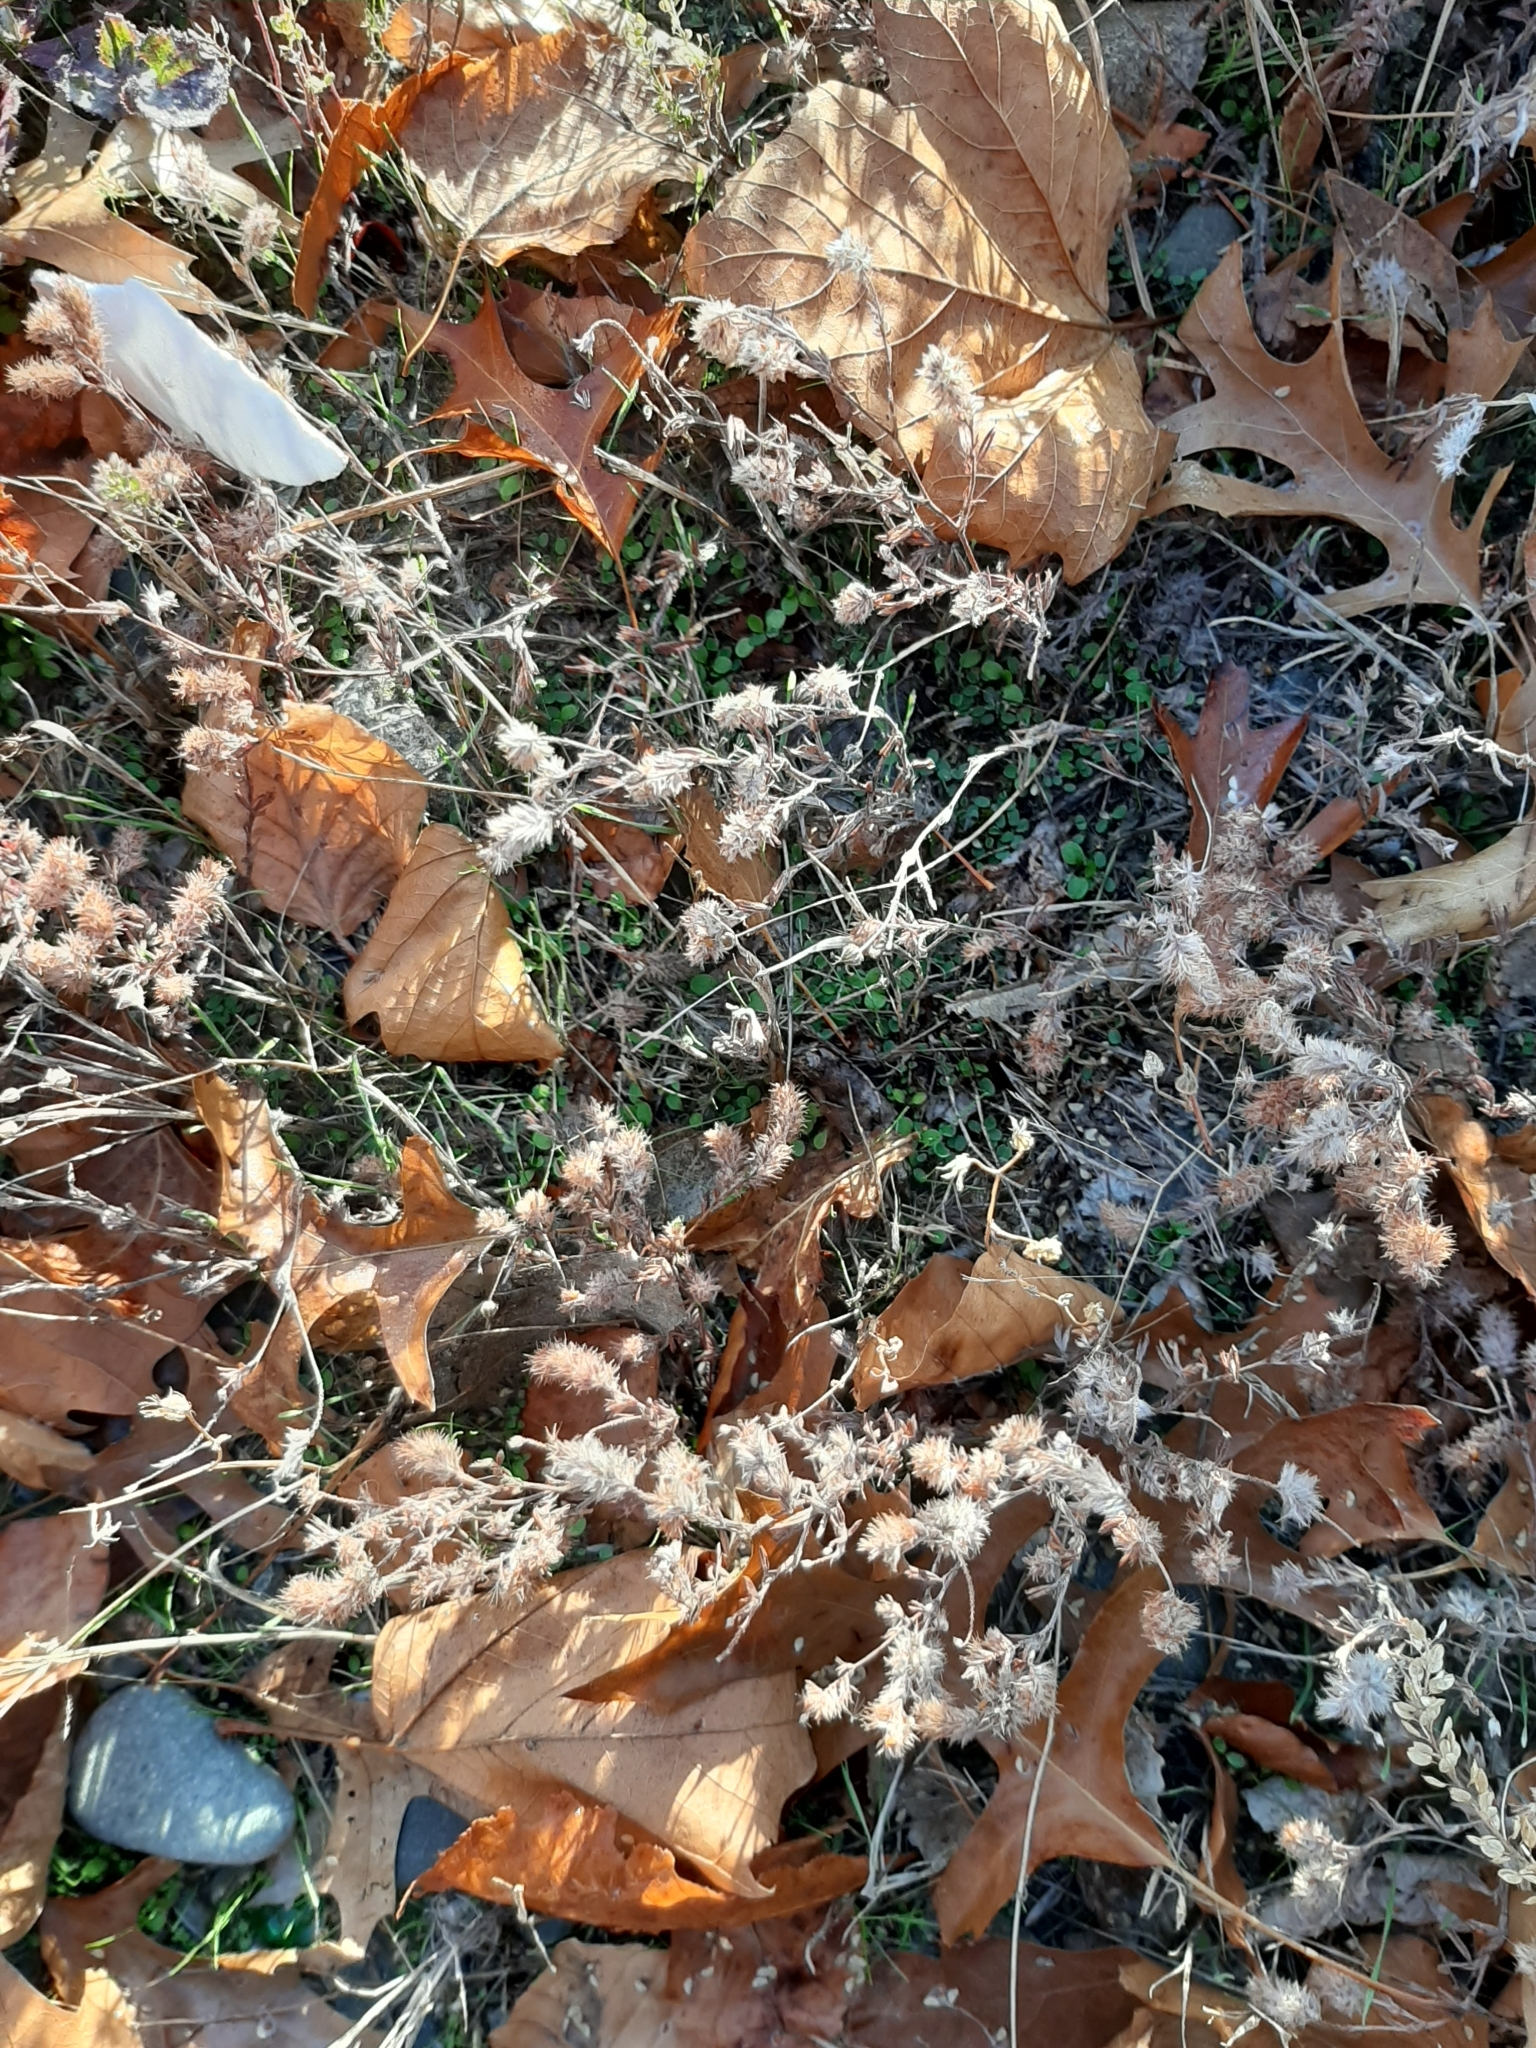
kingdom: Plantae
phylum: Tracheophyta
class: Magnoliopsida
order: Fabales
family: Fabaceae
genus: Trifolium
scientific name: Trifolium arvense
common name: Hare's-foot clover
